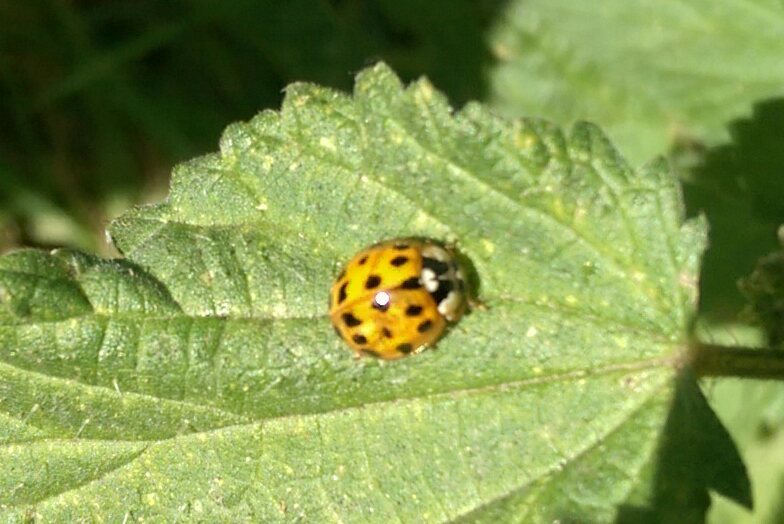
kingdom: Animalia
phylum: Arthropoda
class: Insecta
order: Coleoptera
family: Coccinellidae
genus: Harmonia
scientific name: Harmonia axyridis
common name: Harlequin ladybird
